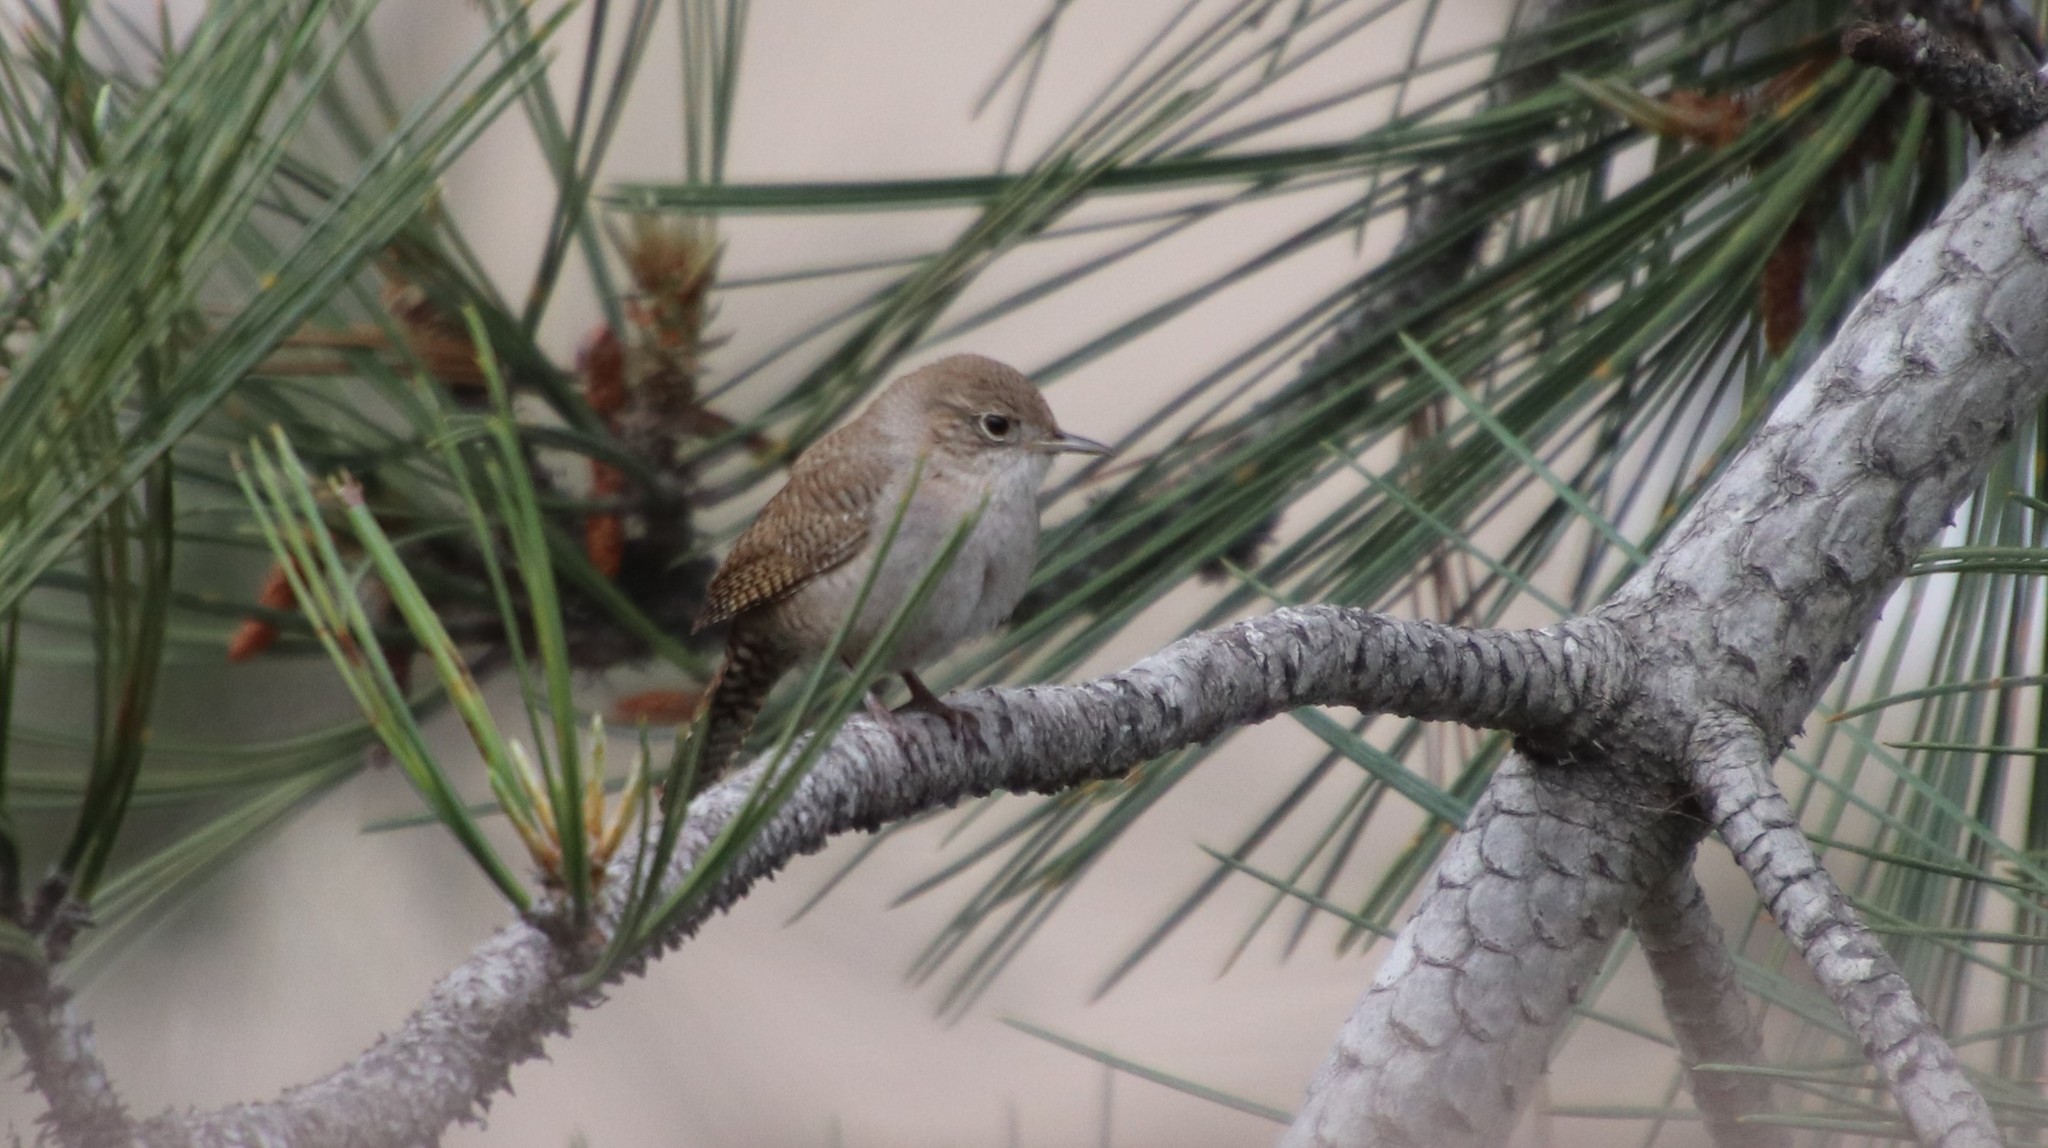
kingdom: Animalia
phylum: Chordata
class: Aves
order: Passeriformes
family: Troglodytidae
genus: Troglodytes
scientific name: Troglodytes aedon
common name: House wren
